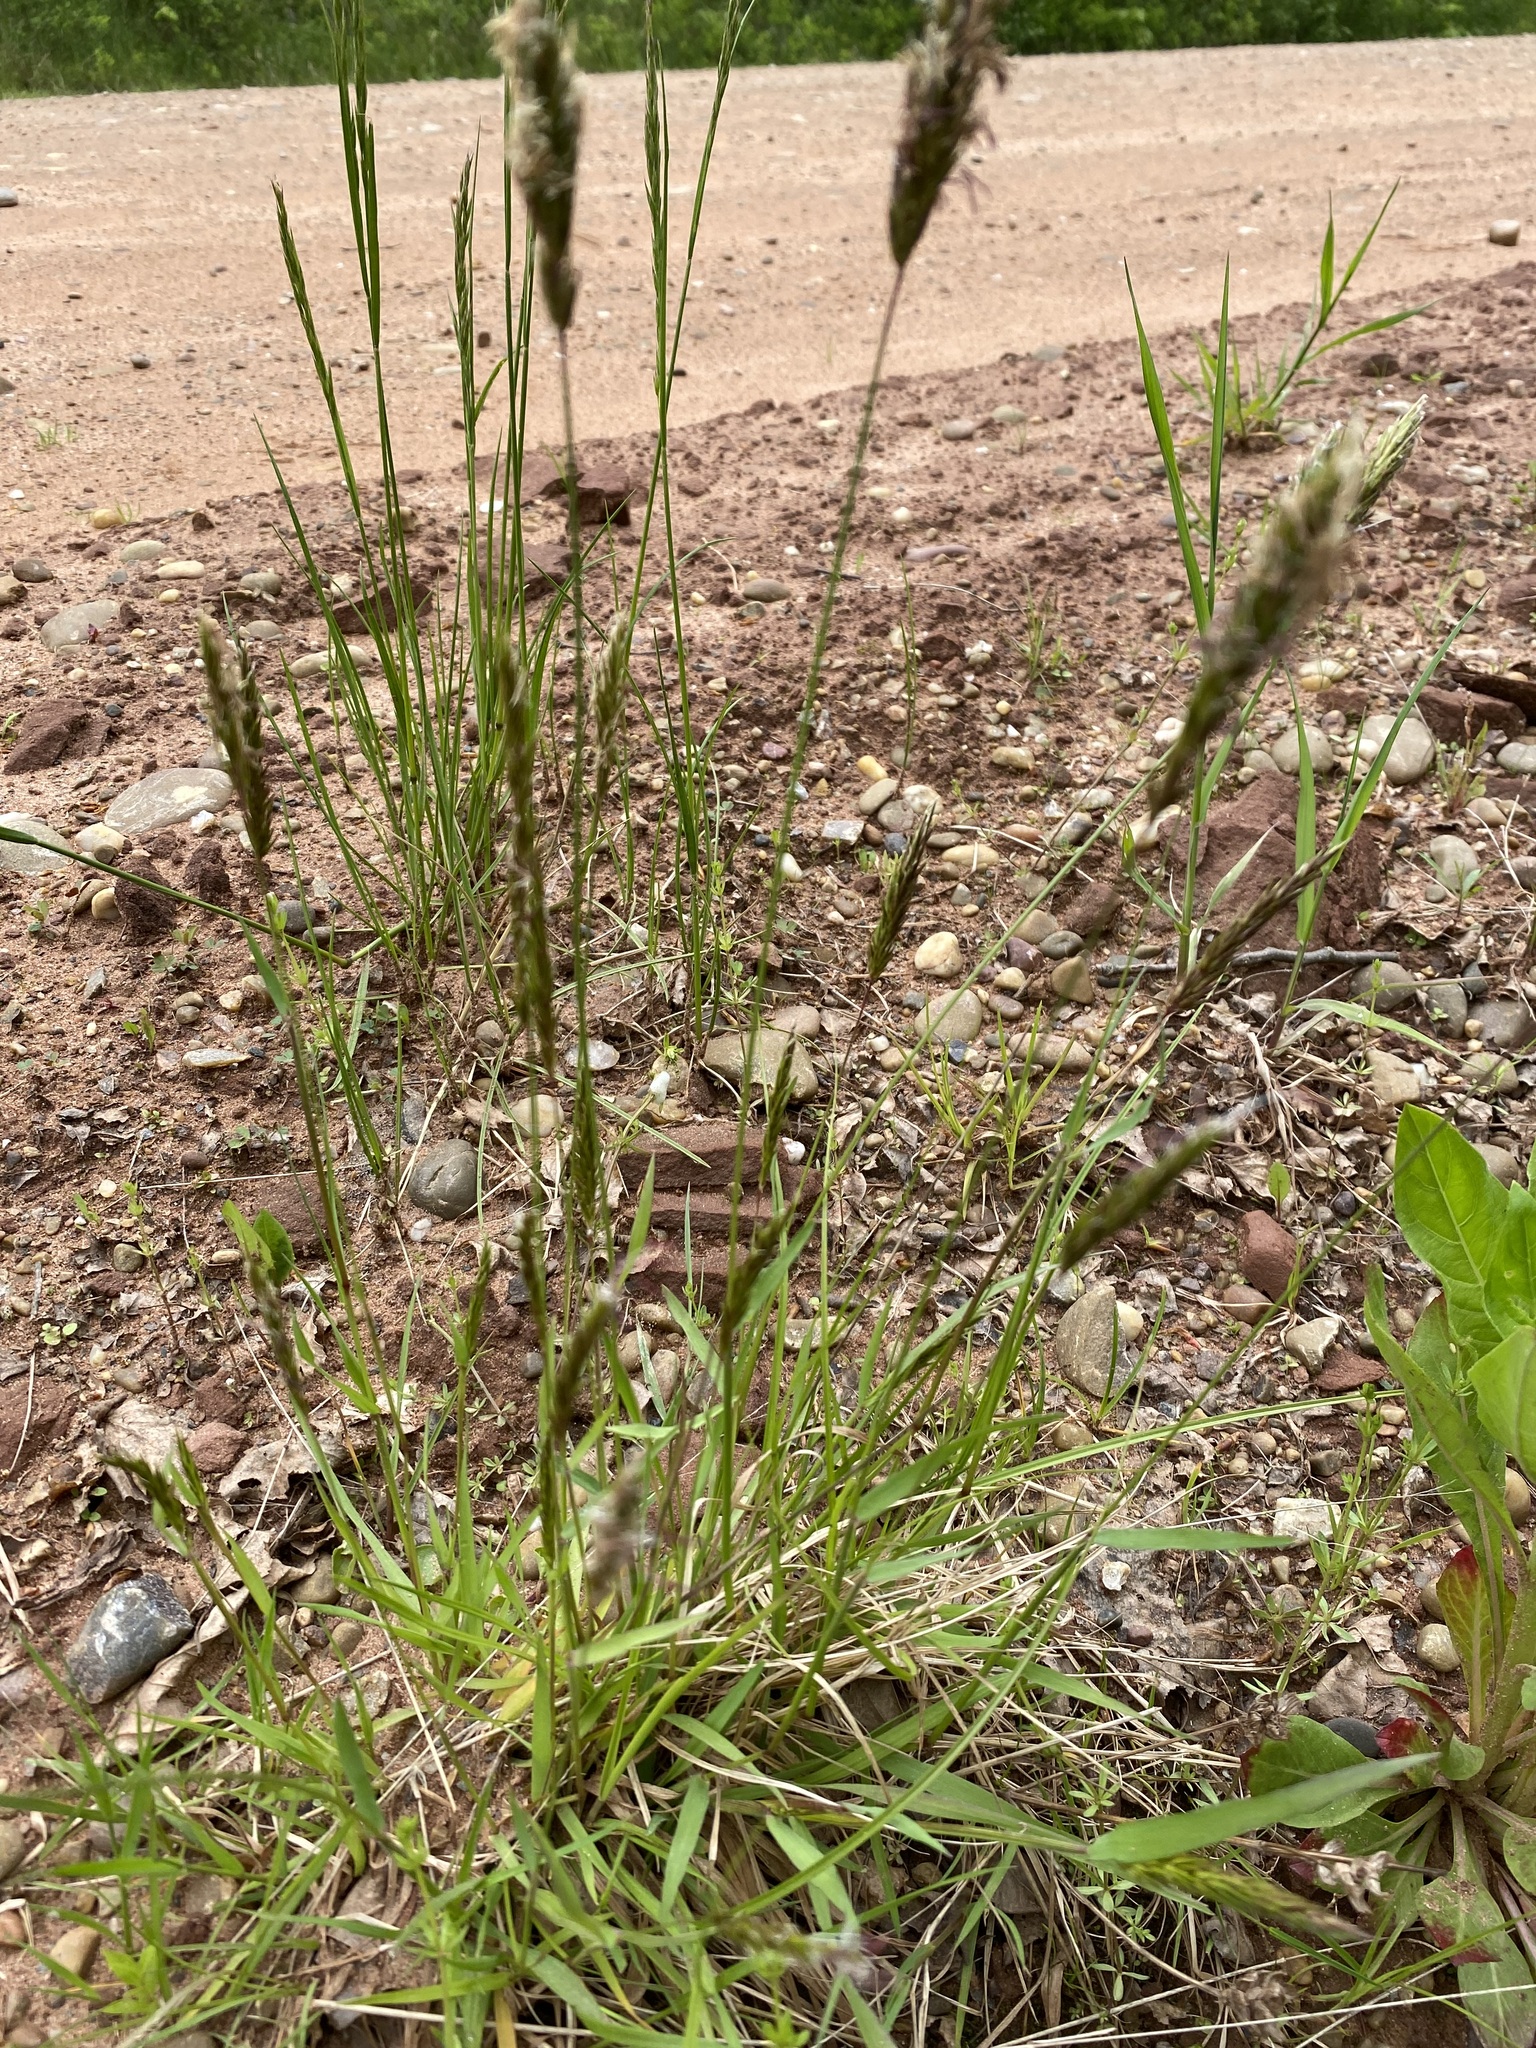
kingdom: Plantae
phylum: Tracheophyta
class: Liliopsida
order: Poales
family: Poaceae
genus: Anthoxanthum
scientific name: Anthoxanthum odoratum
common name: Sweet vernalgrass
